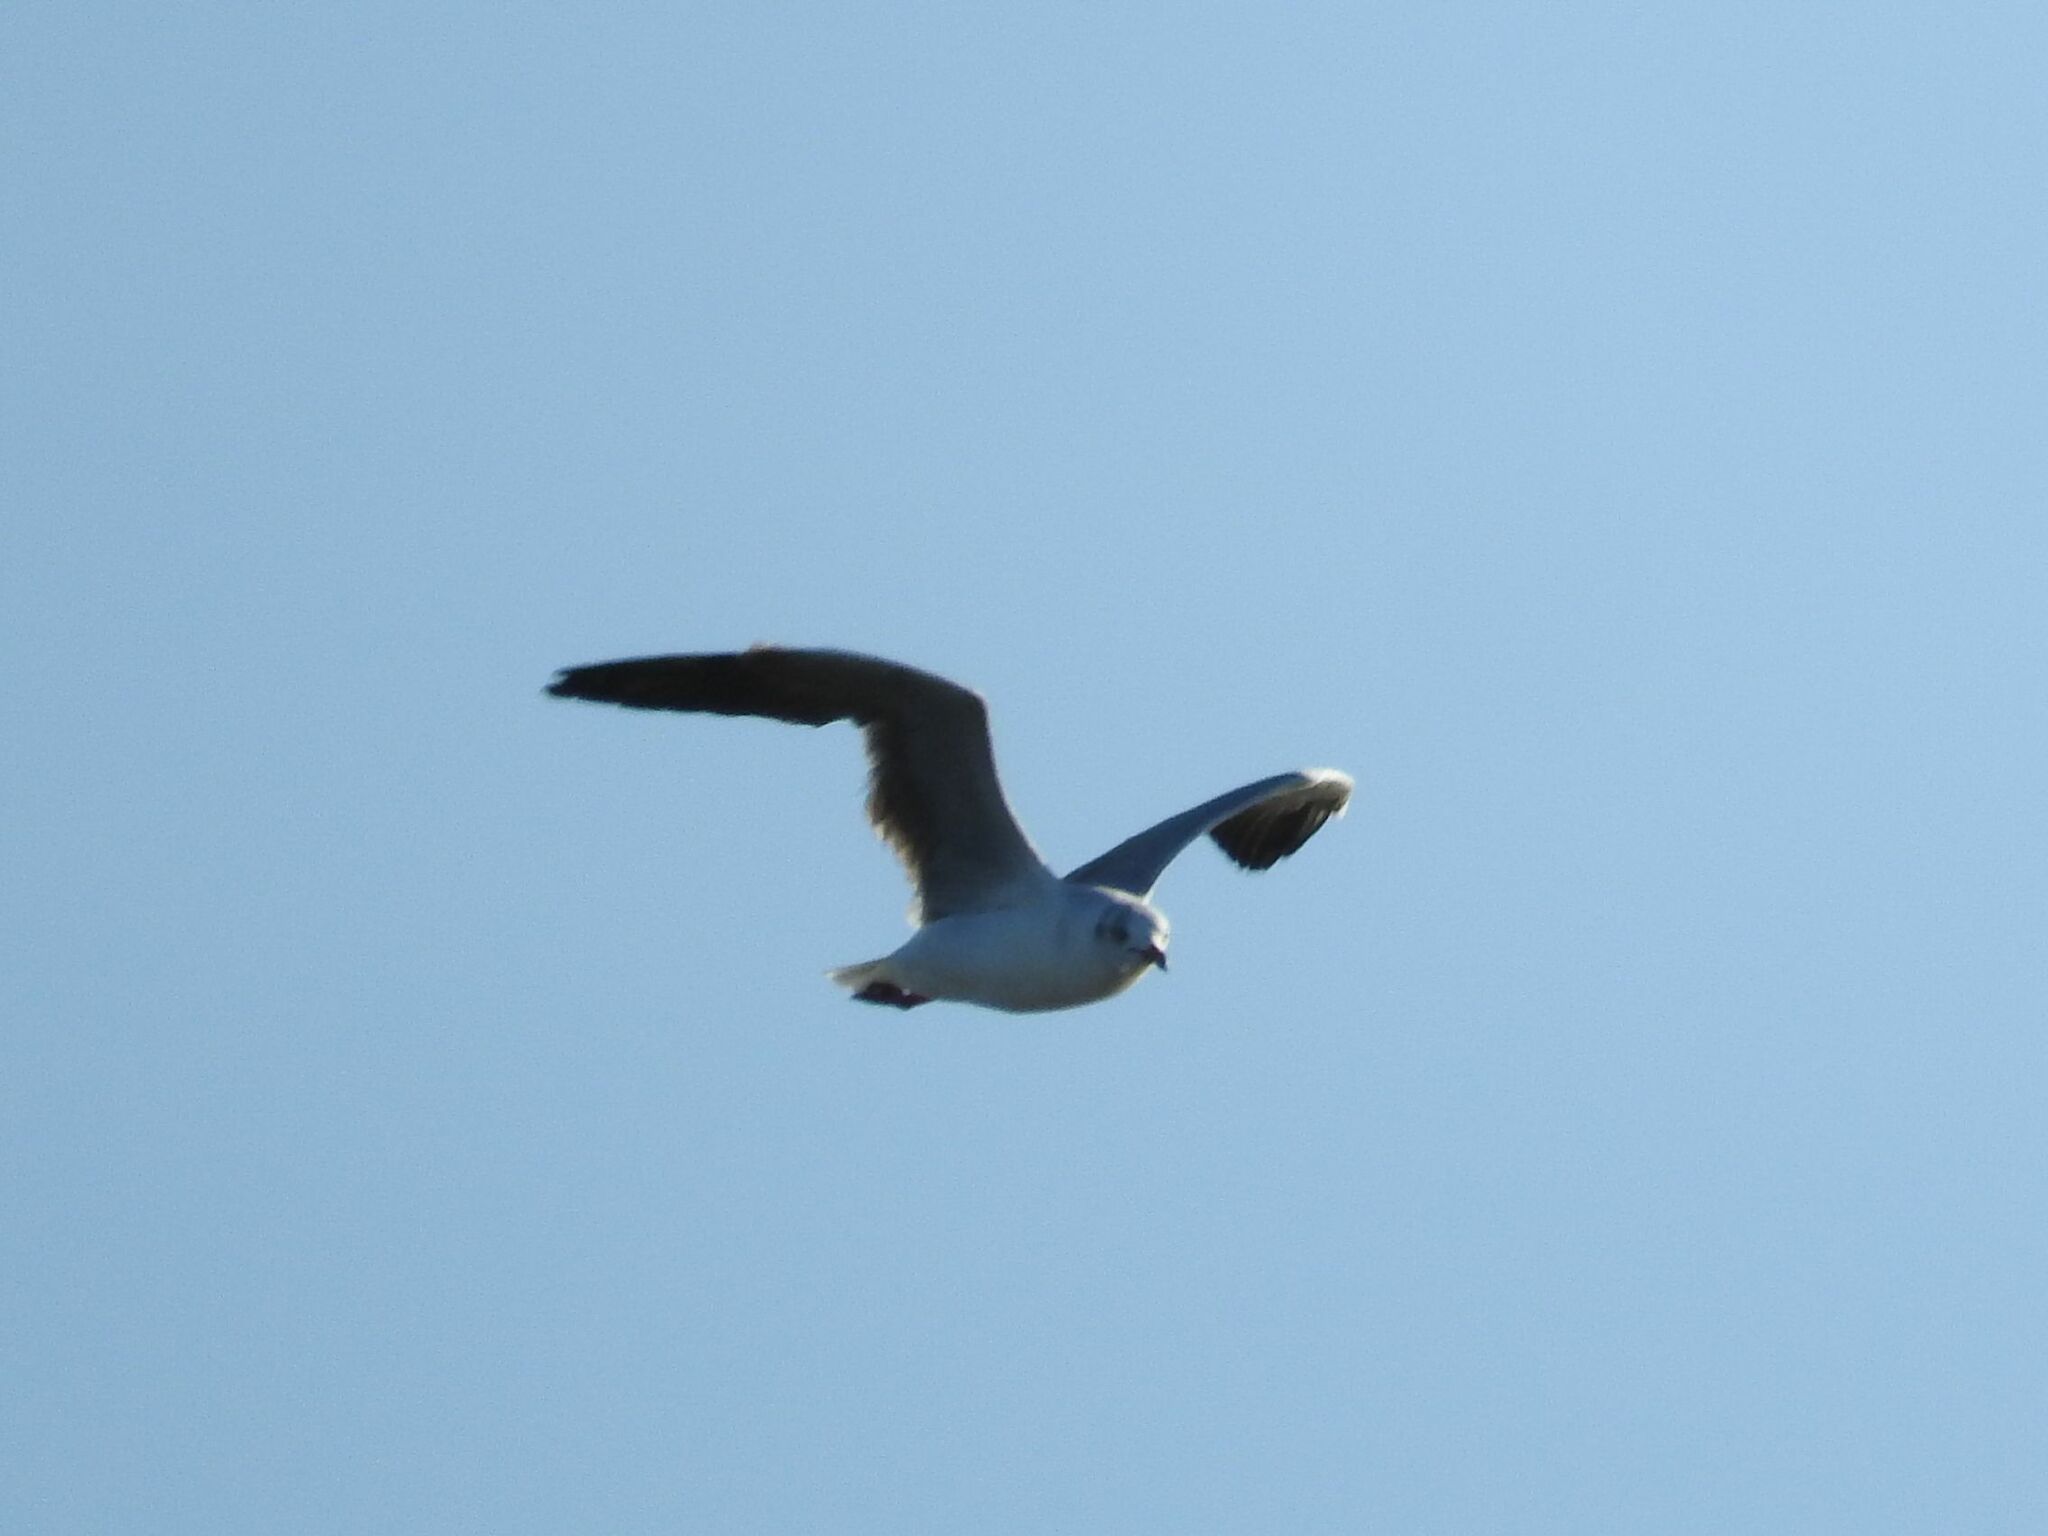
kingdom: Animalia
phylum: Chordata
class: Aves
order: Charadriiformes
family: Laridae
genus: Chroicocephalus
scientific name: Chroicocephalus maculipennis
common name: Brown-hooded gull
